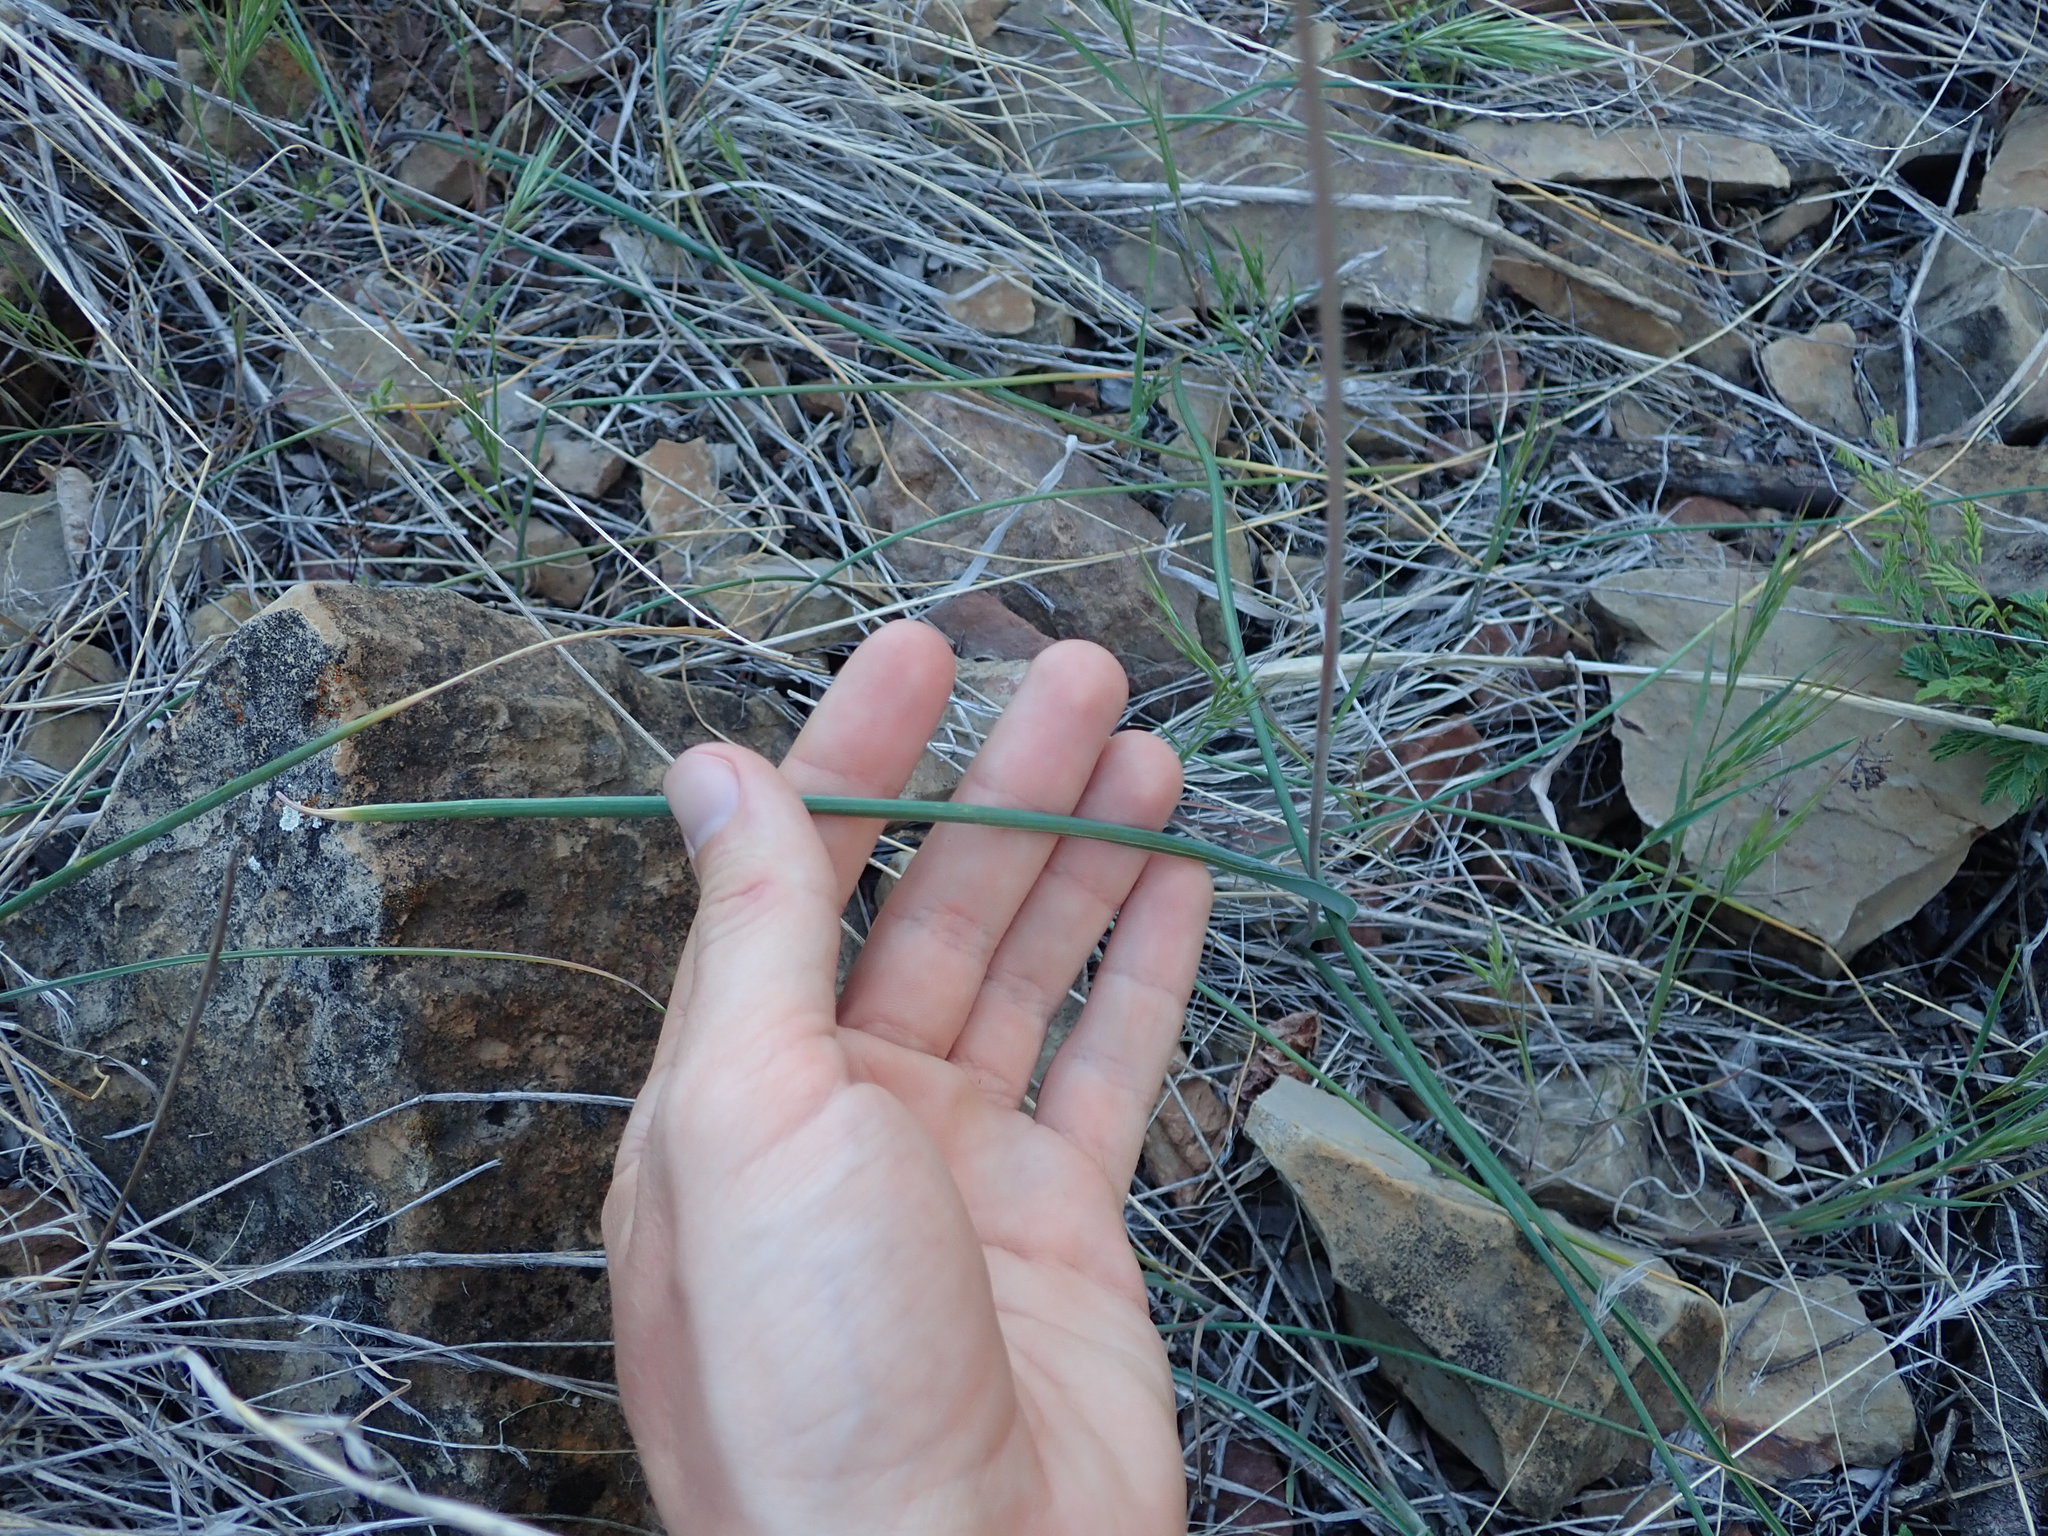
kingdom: Plantae
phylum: Tracheophyta
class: Liliopsida
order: Asparagales
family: Asparagaceae
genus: Dipterostemon
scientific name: Dipterostemon capitatus
